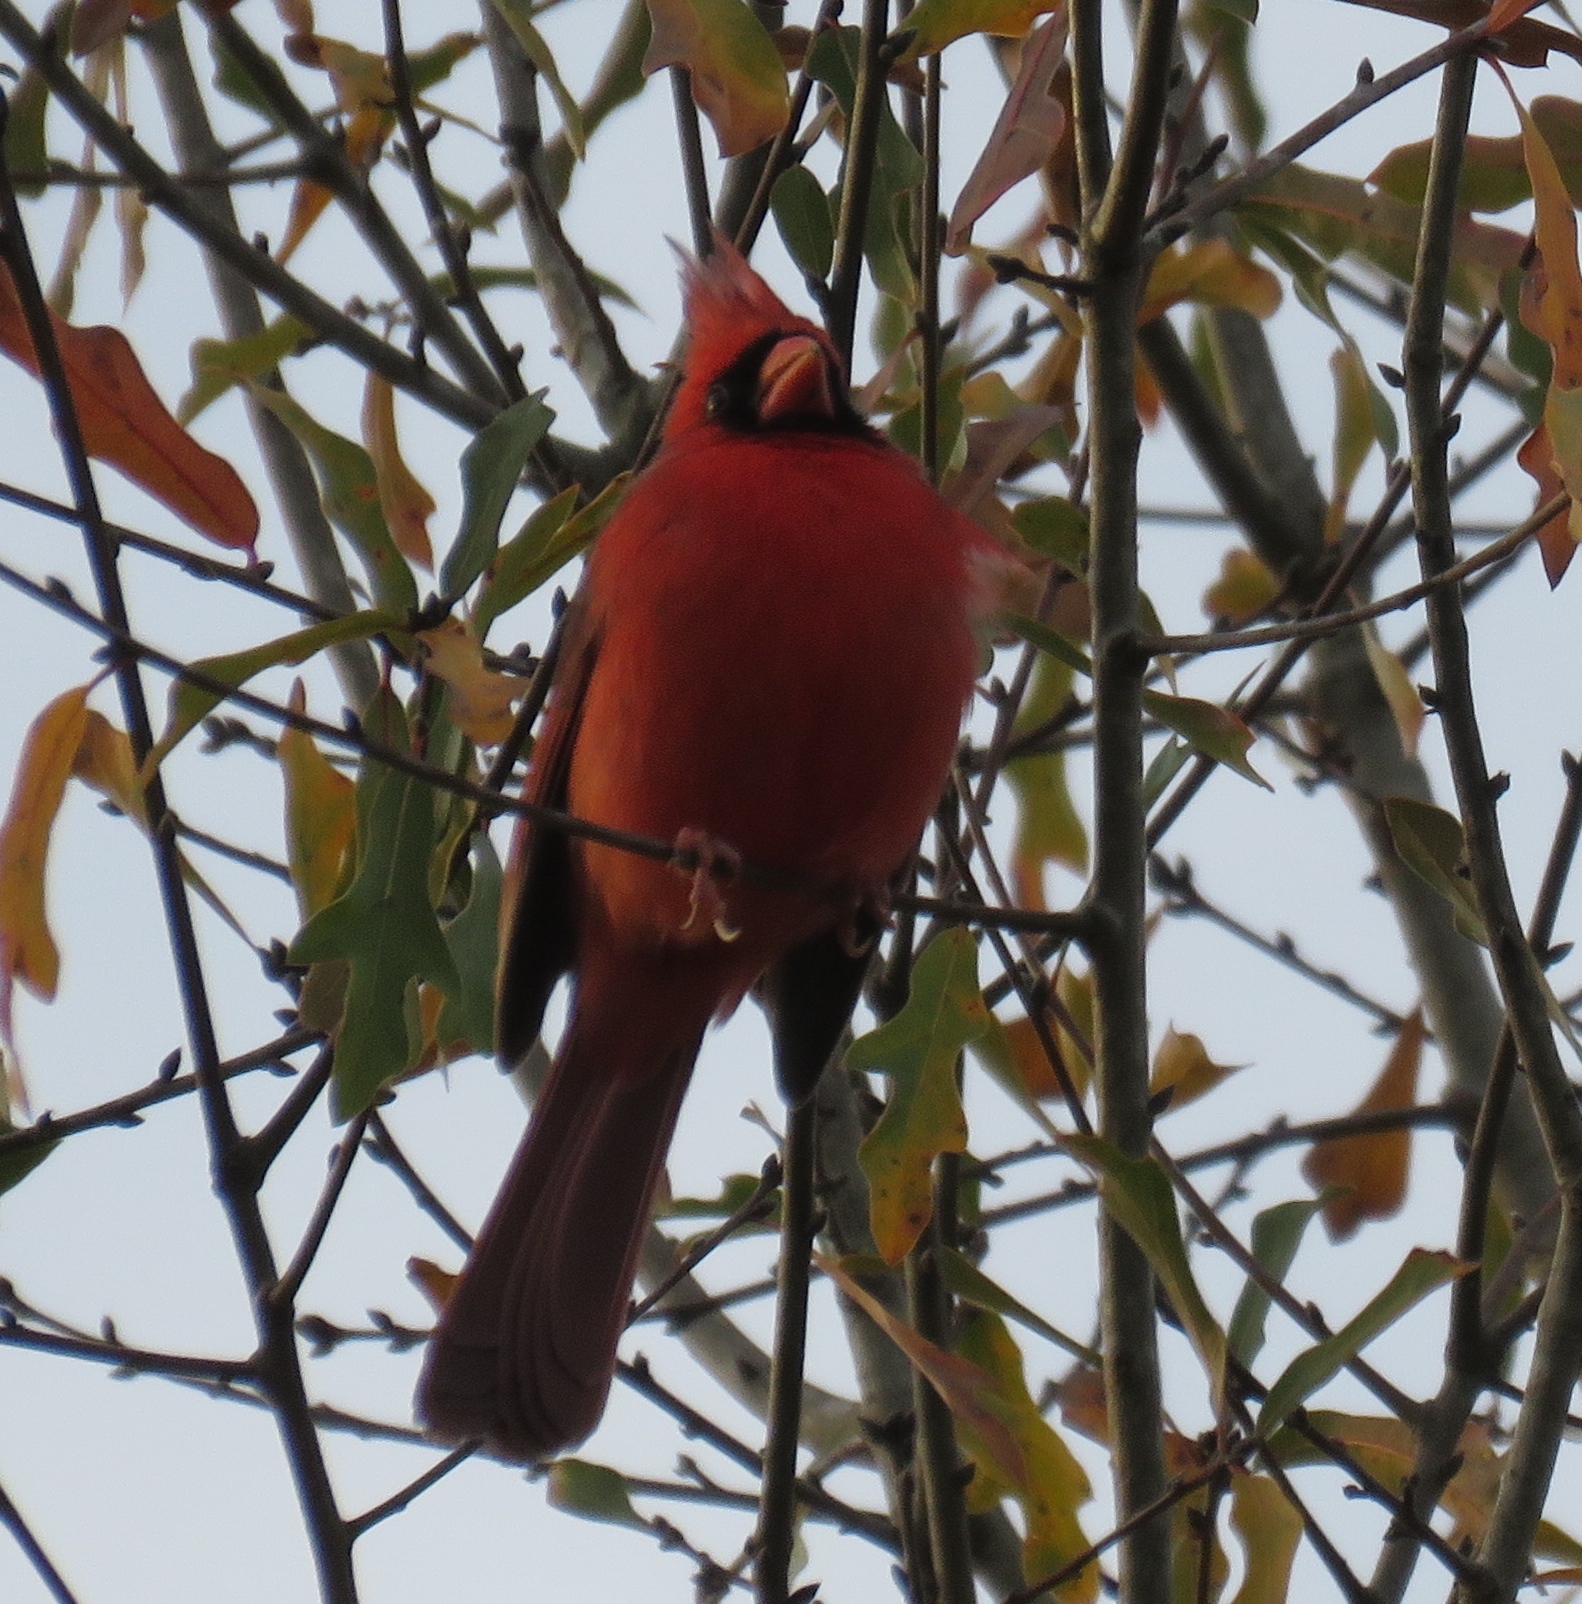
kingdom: Animalia
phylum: Chordata
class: Aves
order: Passeriformes
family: Cardinalidae
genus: Cardinalis
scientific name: Cardinalis cardinalis
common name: Northern cardinal
